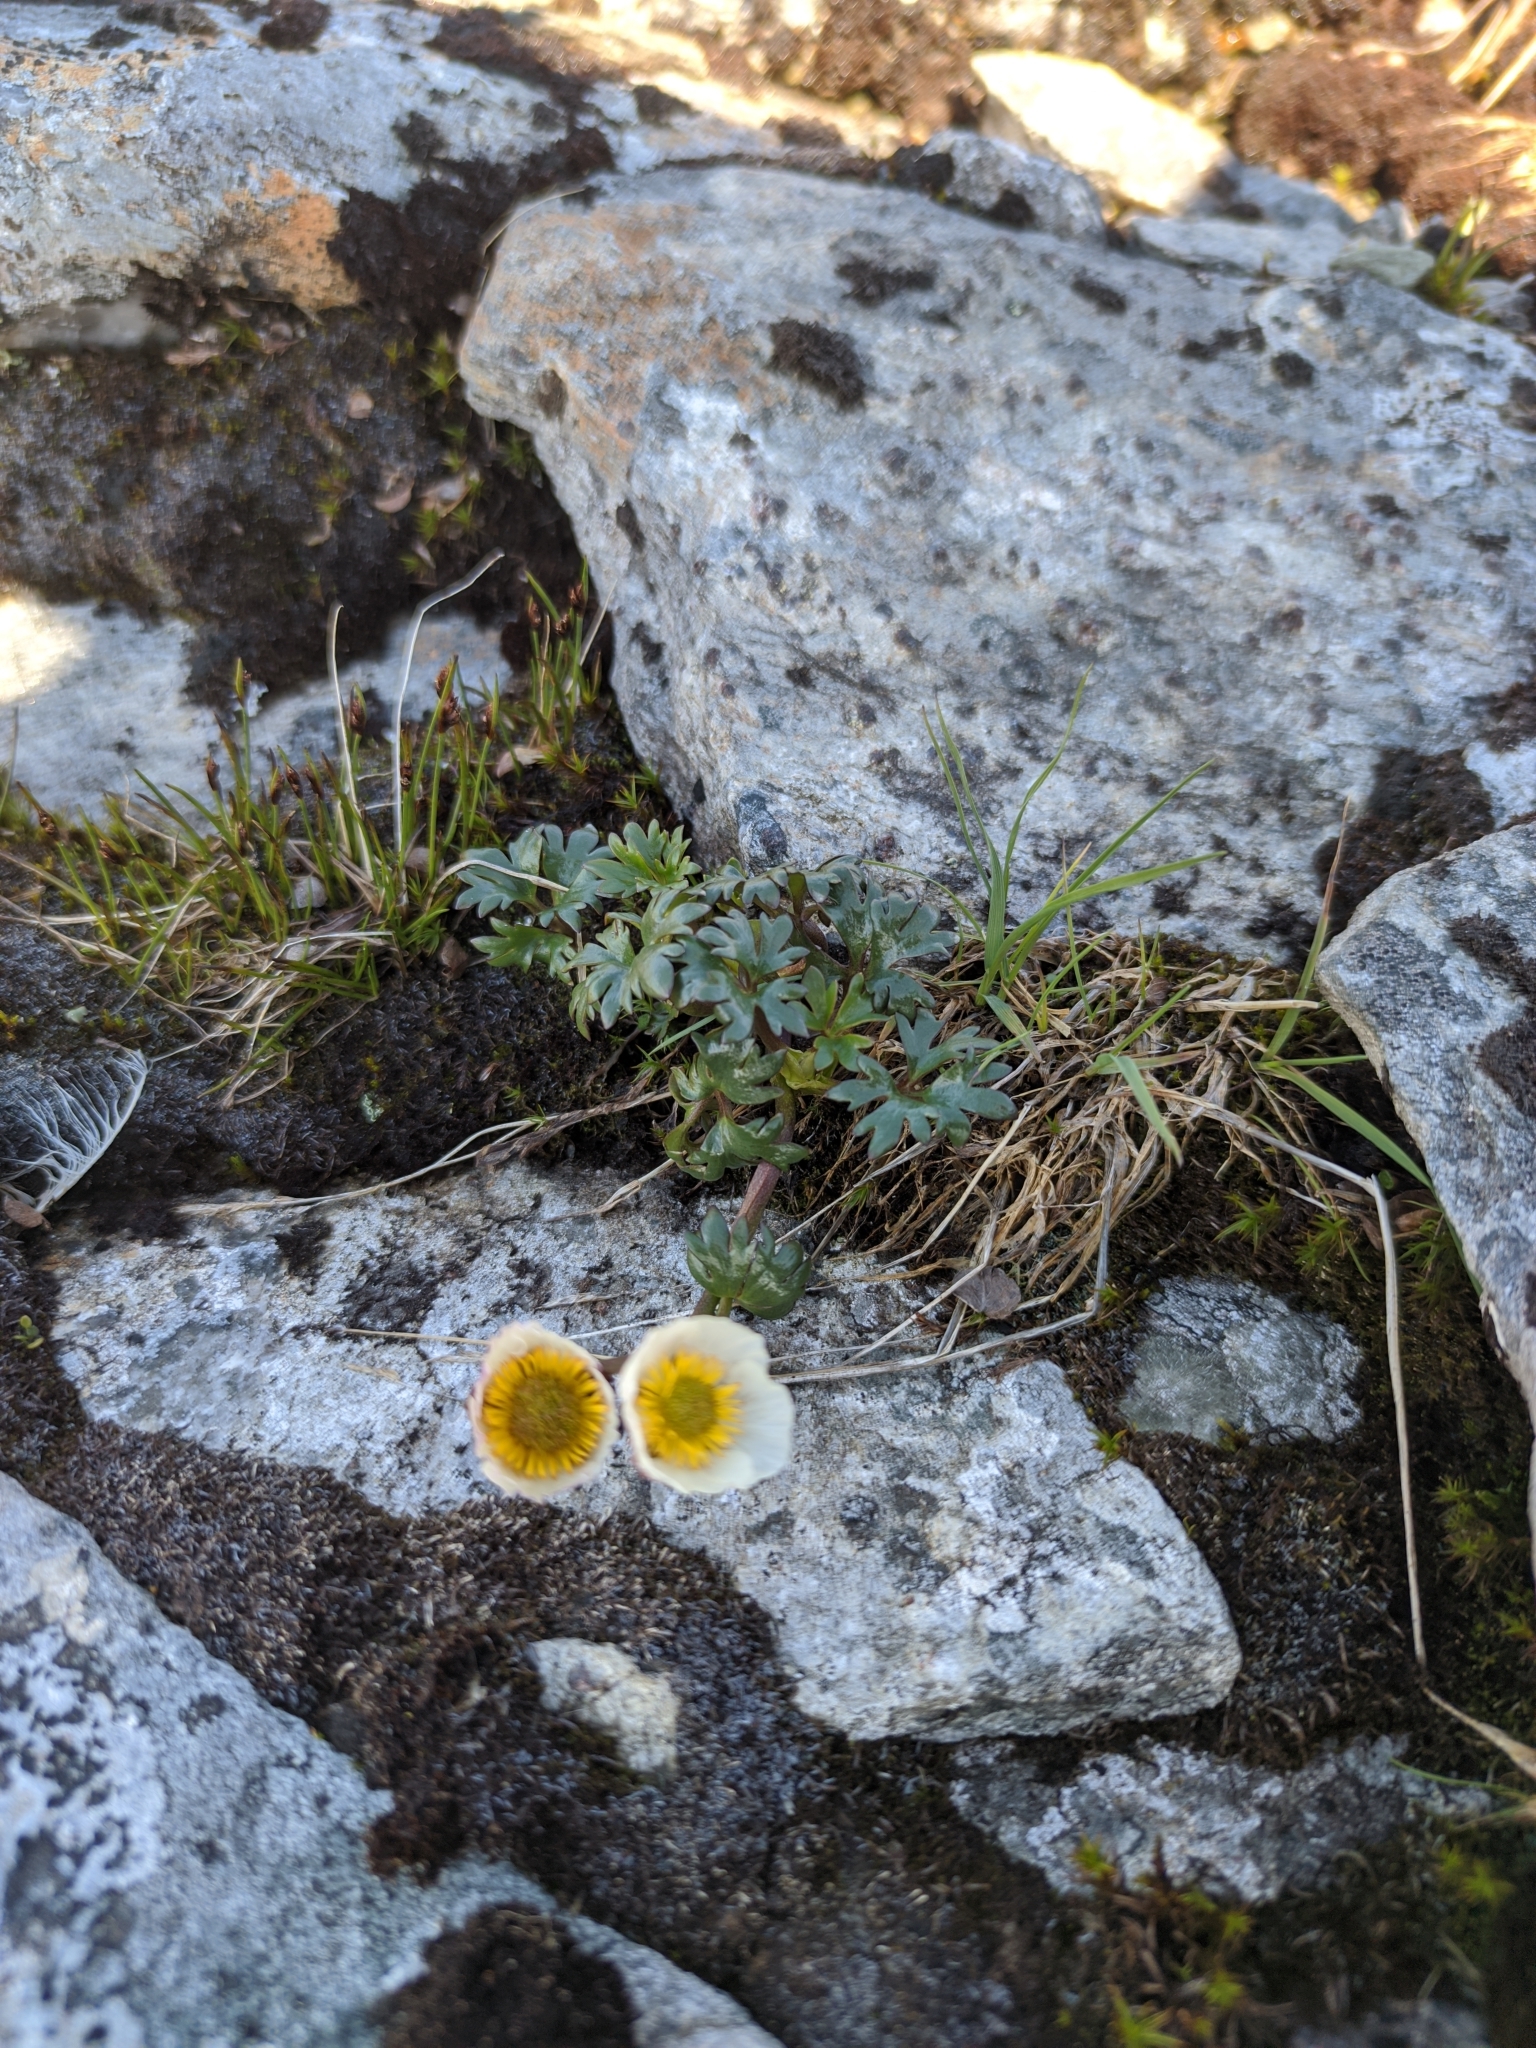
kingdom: Plantae
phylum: Tracheophyta
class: Magnoliopsida
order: Ranunculales
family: Ranunculaceae
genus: Ranunculus
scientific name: Ranunculus glacialis
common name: Glacier buttercup
